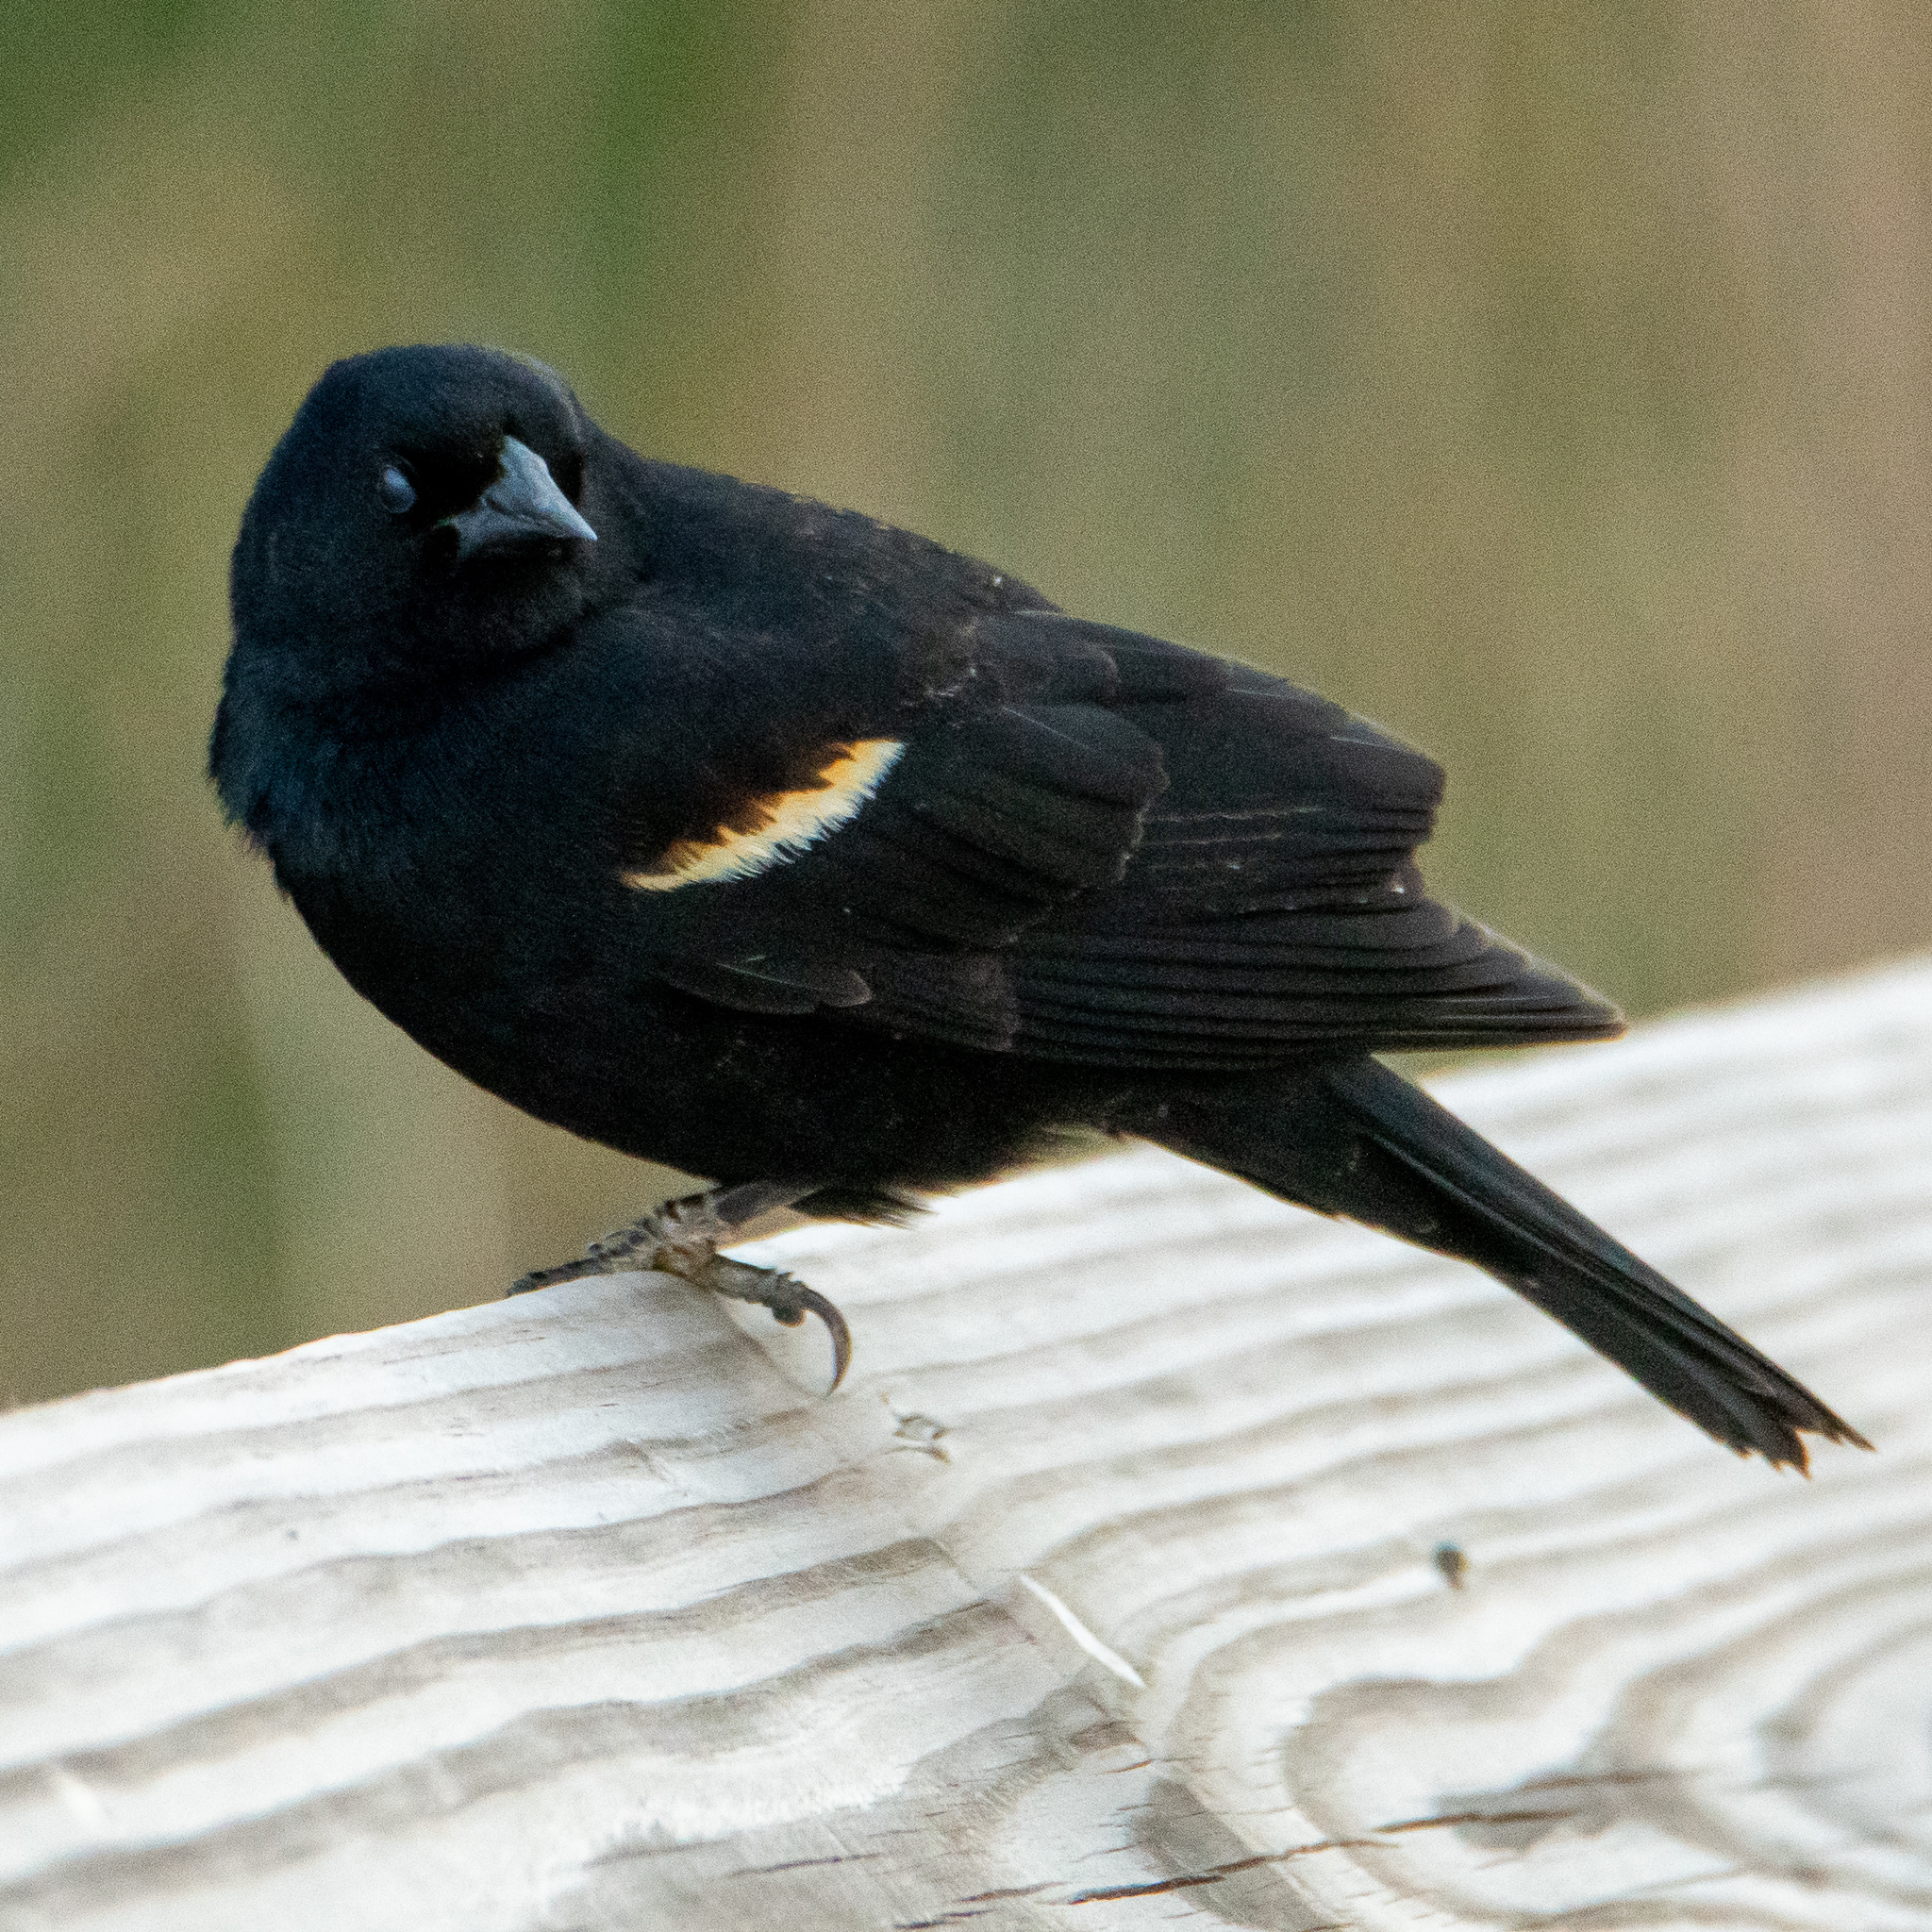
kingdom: Animalia
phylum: Chordata
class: Aves
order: Passeriformes
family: Icteridae
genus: Agelaius
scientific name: Agelaius phoeniceus
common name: Red-winged blackbird
